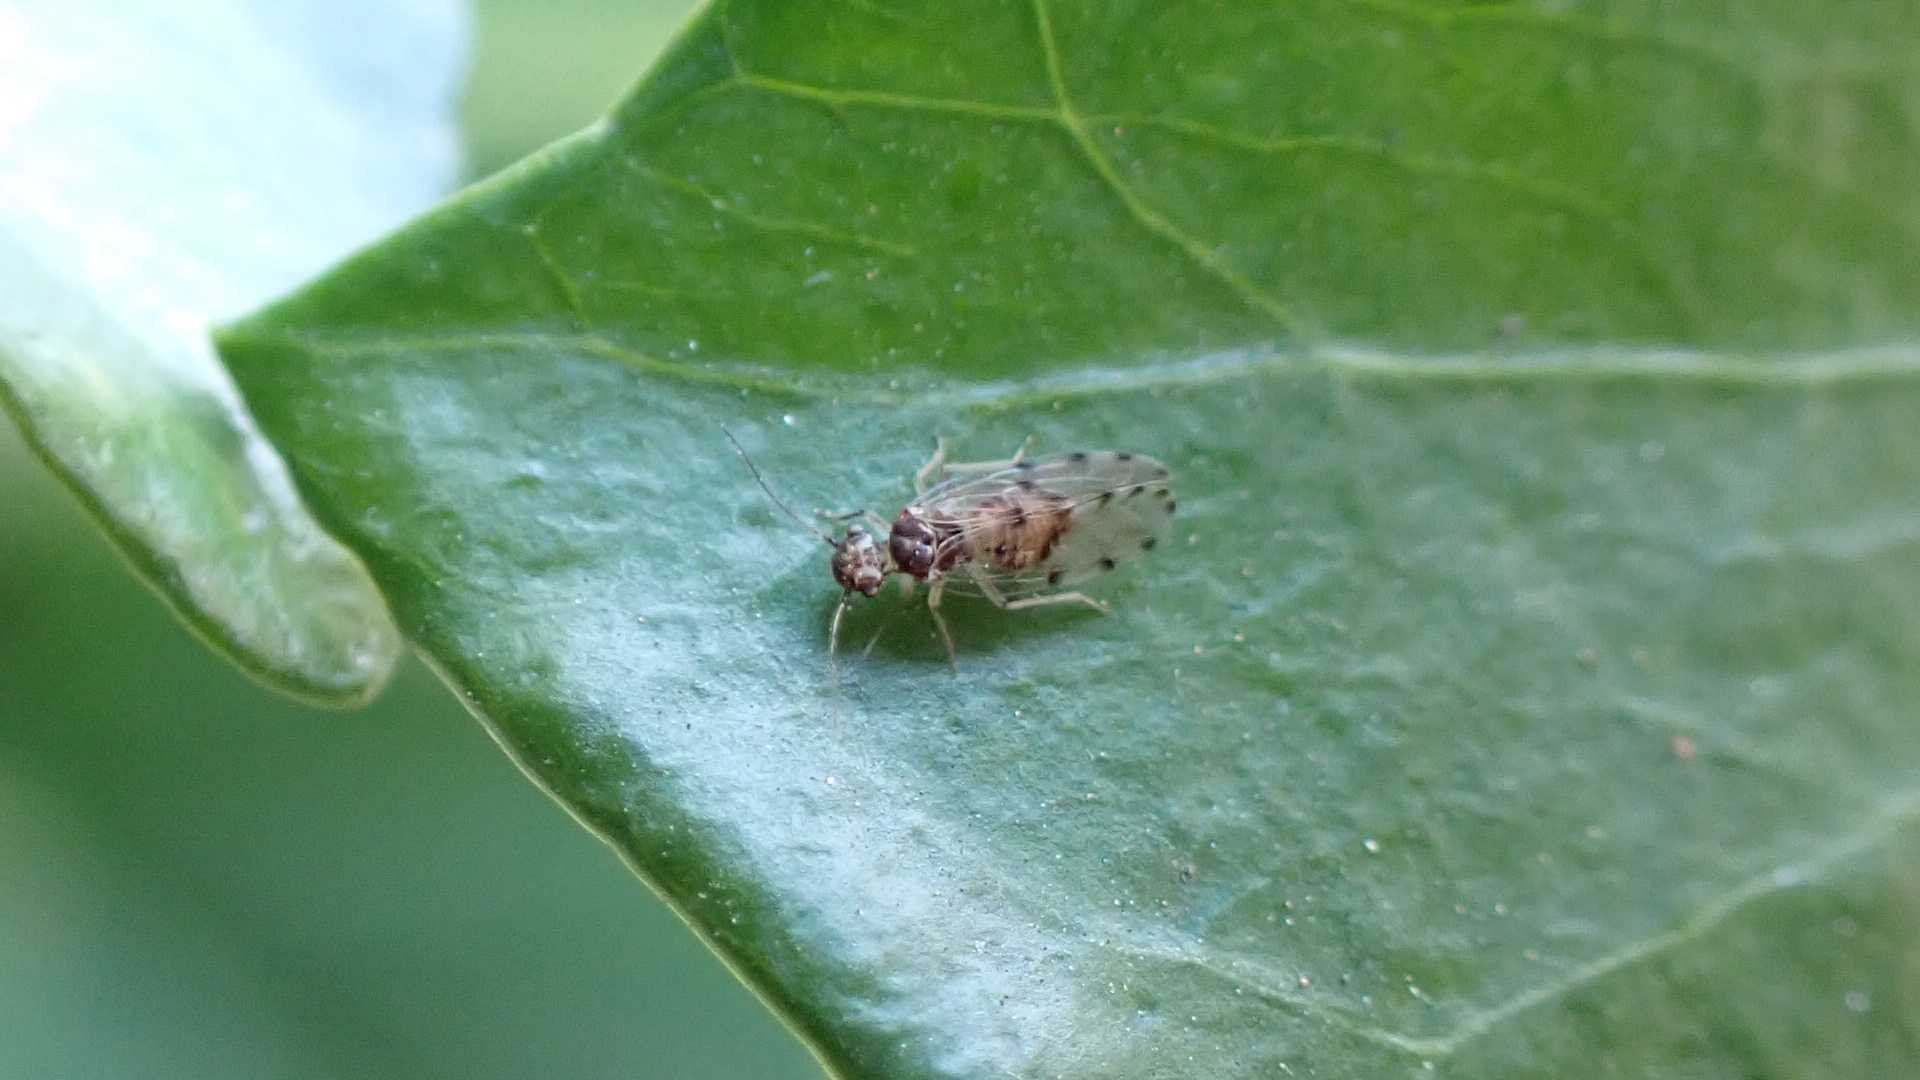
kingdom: Animalia
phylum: Arthropoda
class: Insecta
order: Psocodea
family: Ectopsocidae
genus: Ectopsocus
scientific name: Ectopsocus petersi
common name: Medium-sized bark louse
